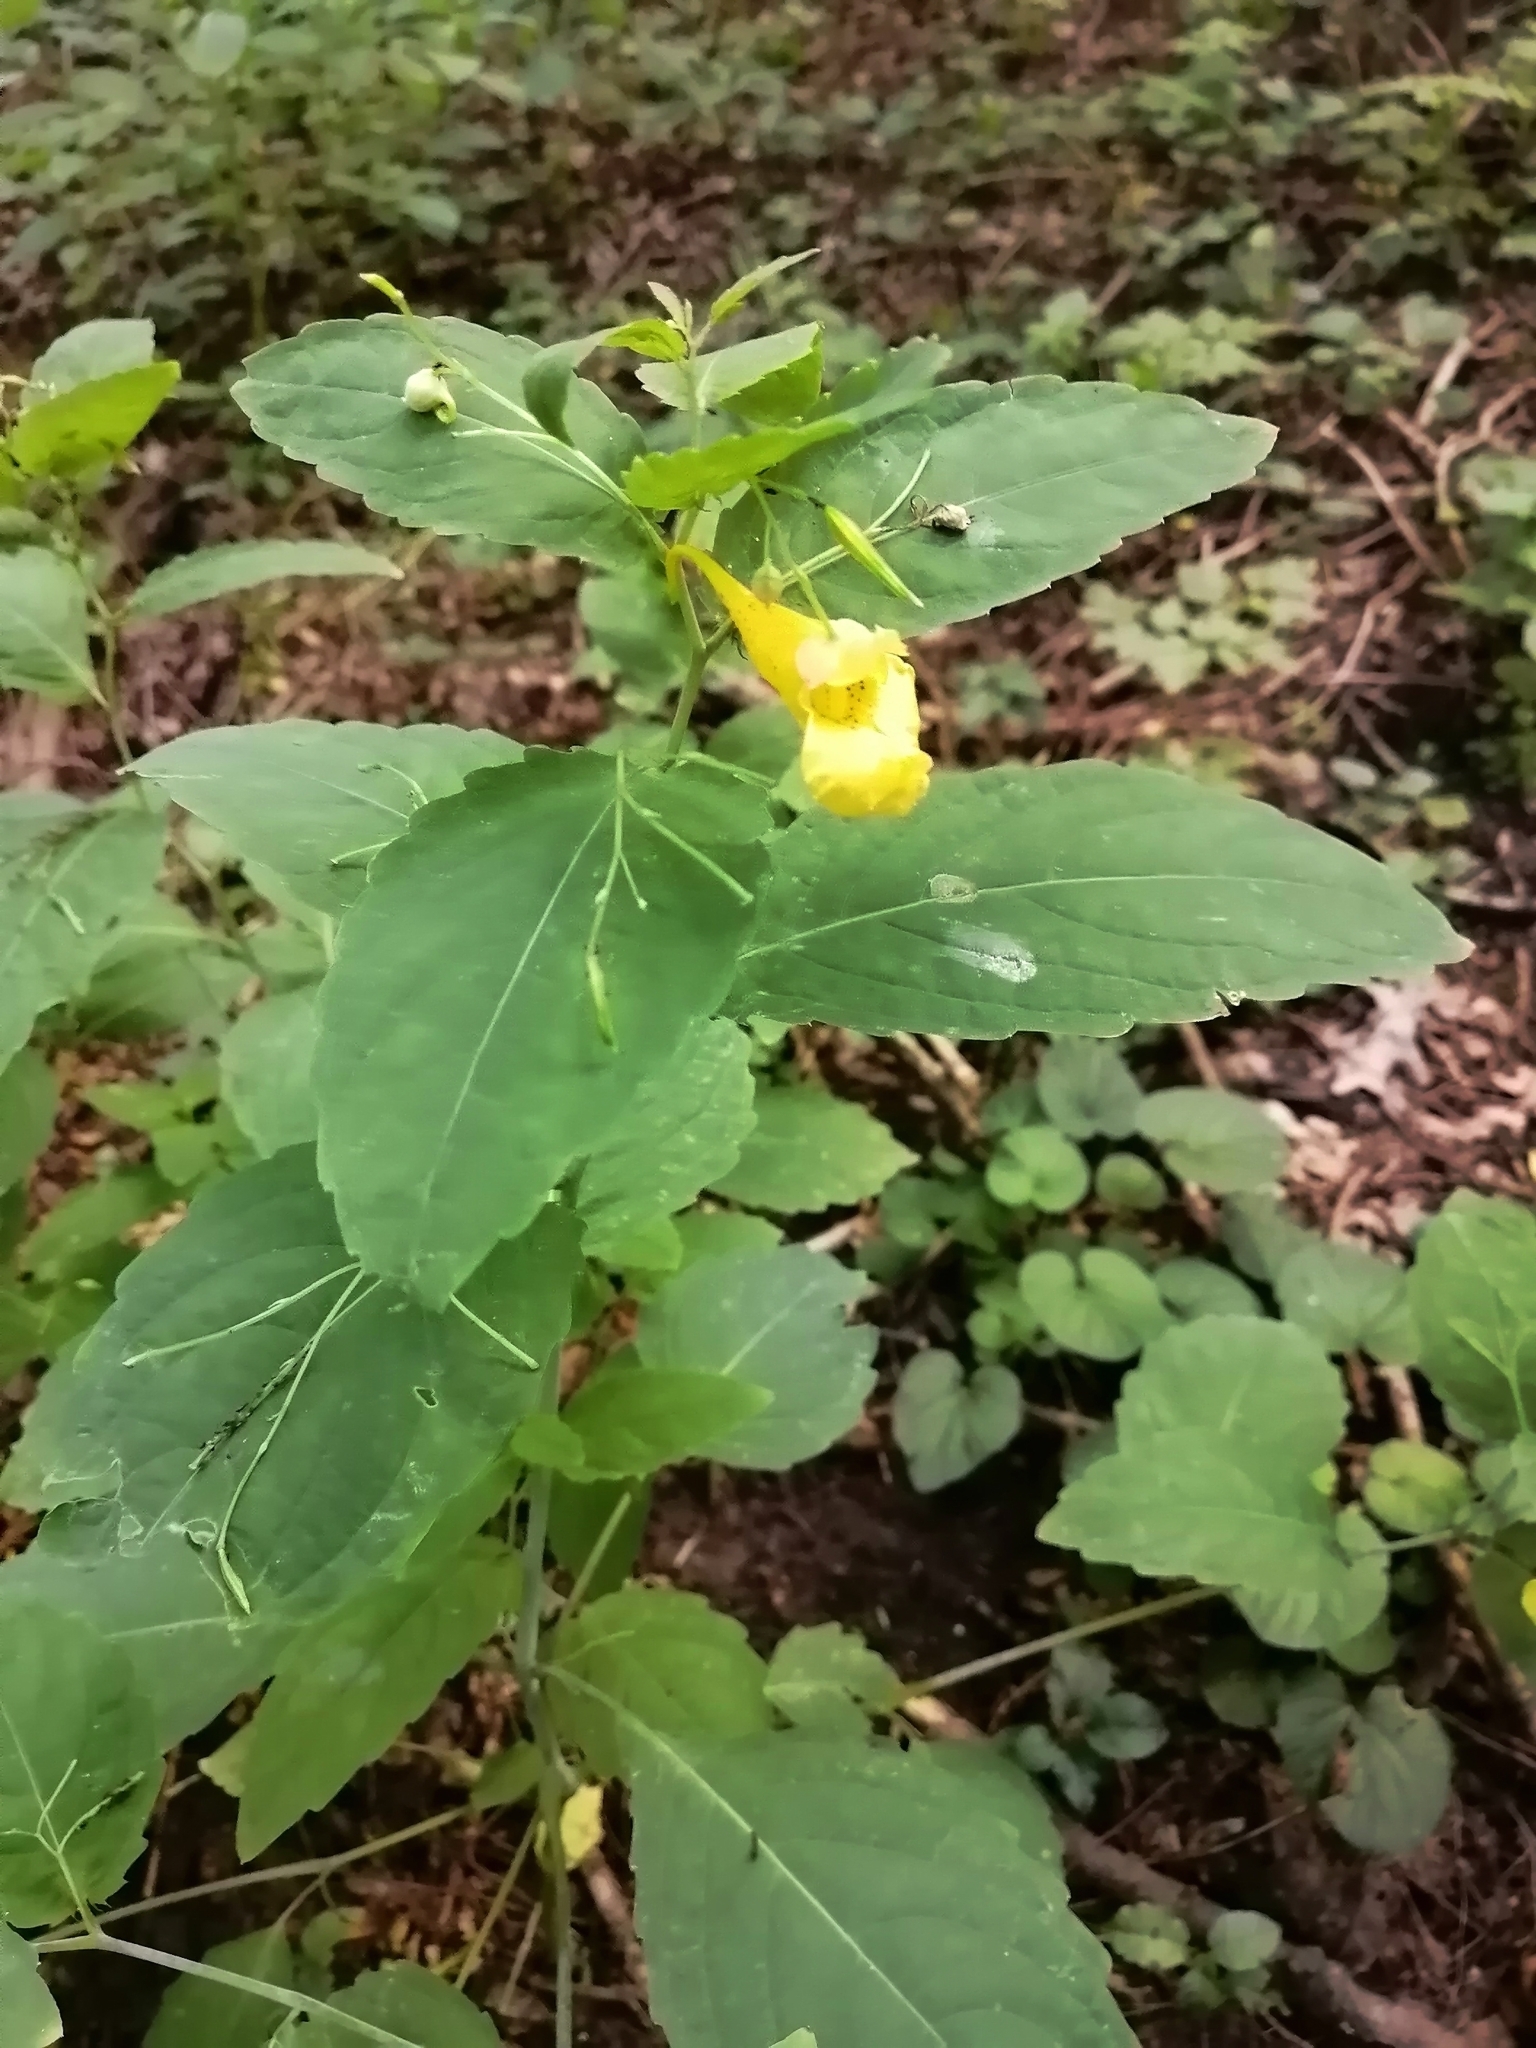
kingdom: Plantae
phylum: Tracheophyta
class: Magnoliopsida
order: Ericales
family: Balsaminaceae
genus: Impatiens
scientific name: Impatiens noli-tangere
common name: Touch-me-not balsam
